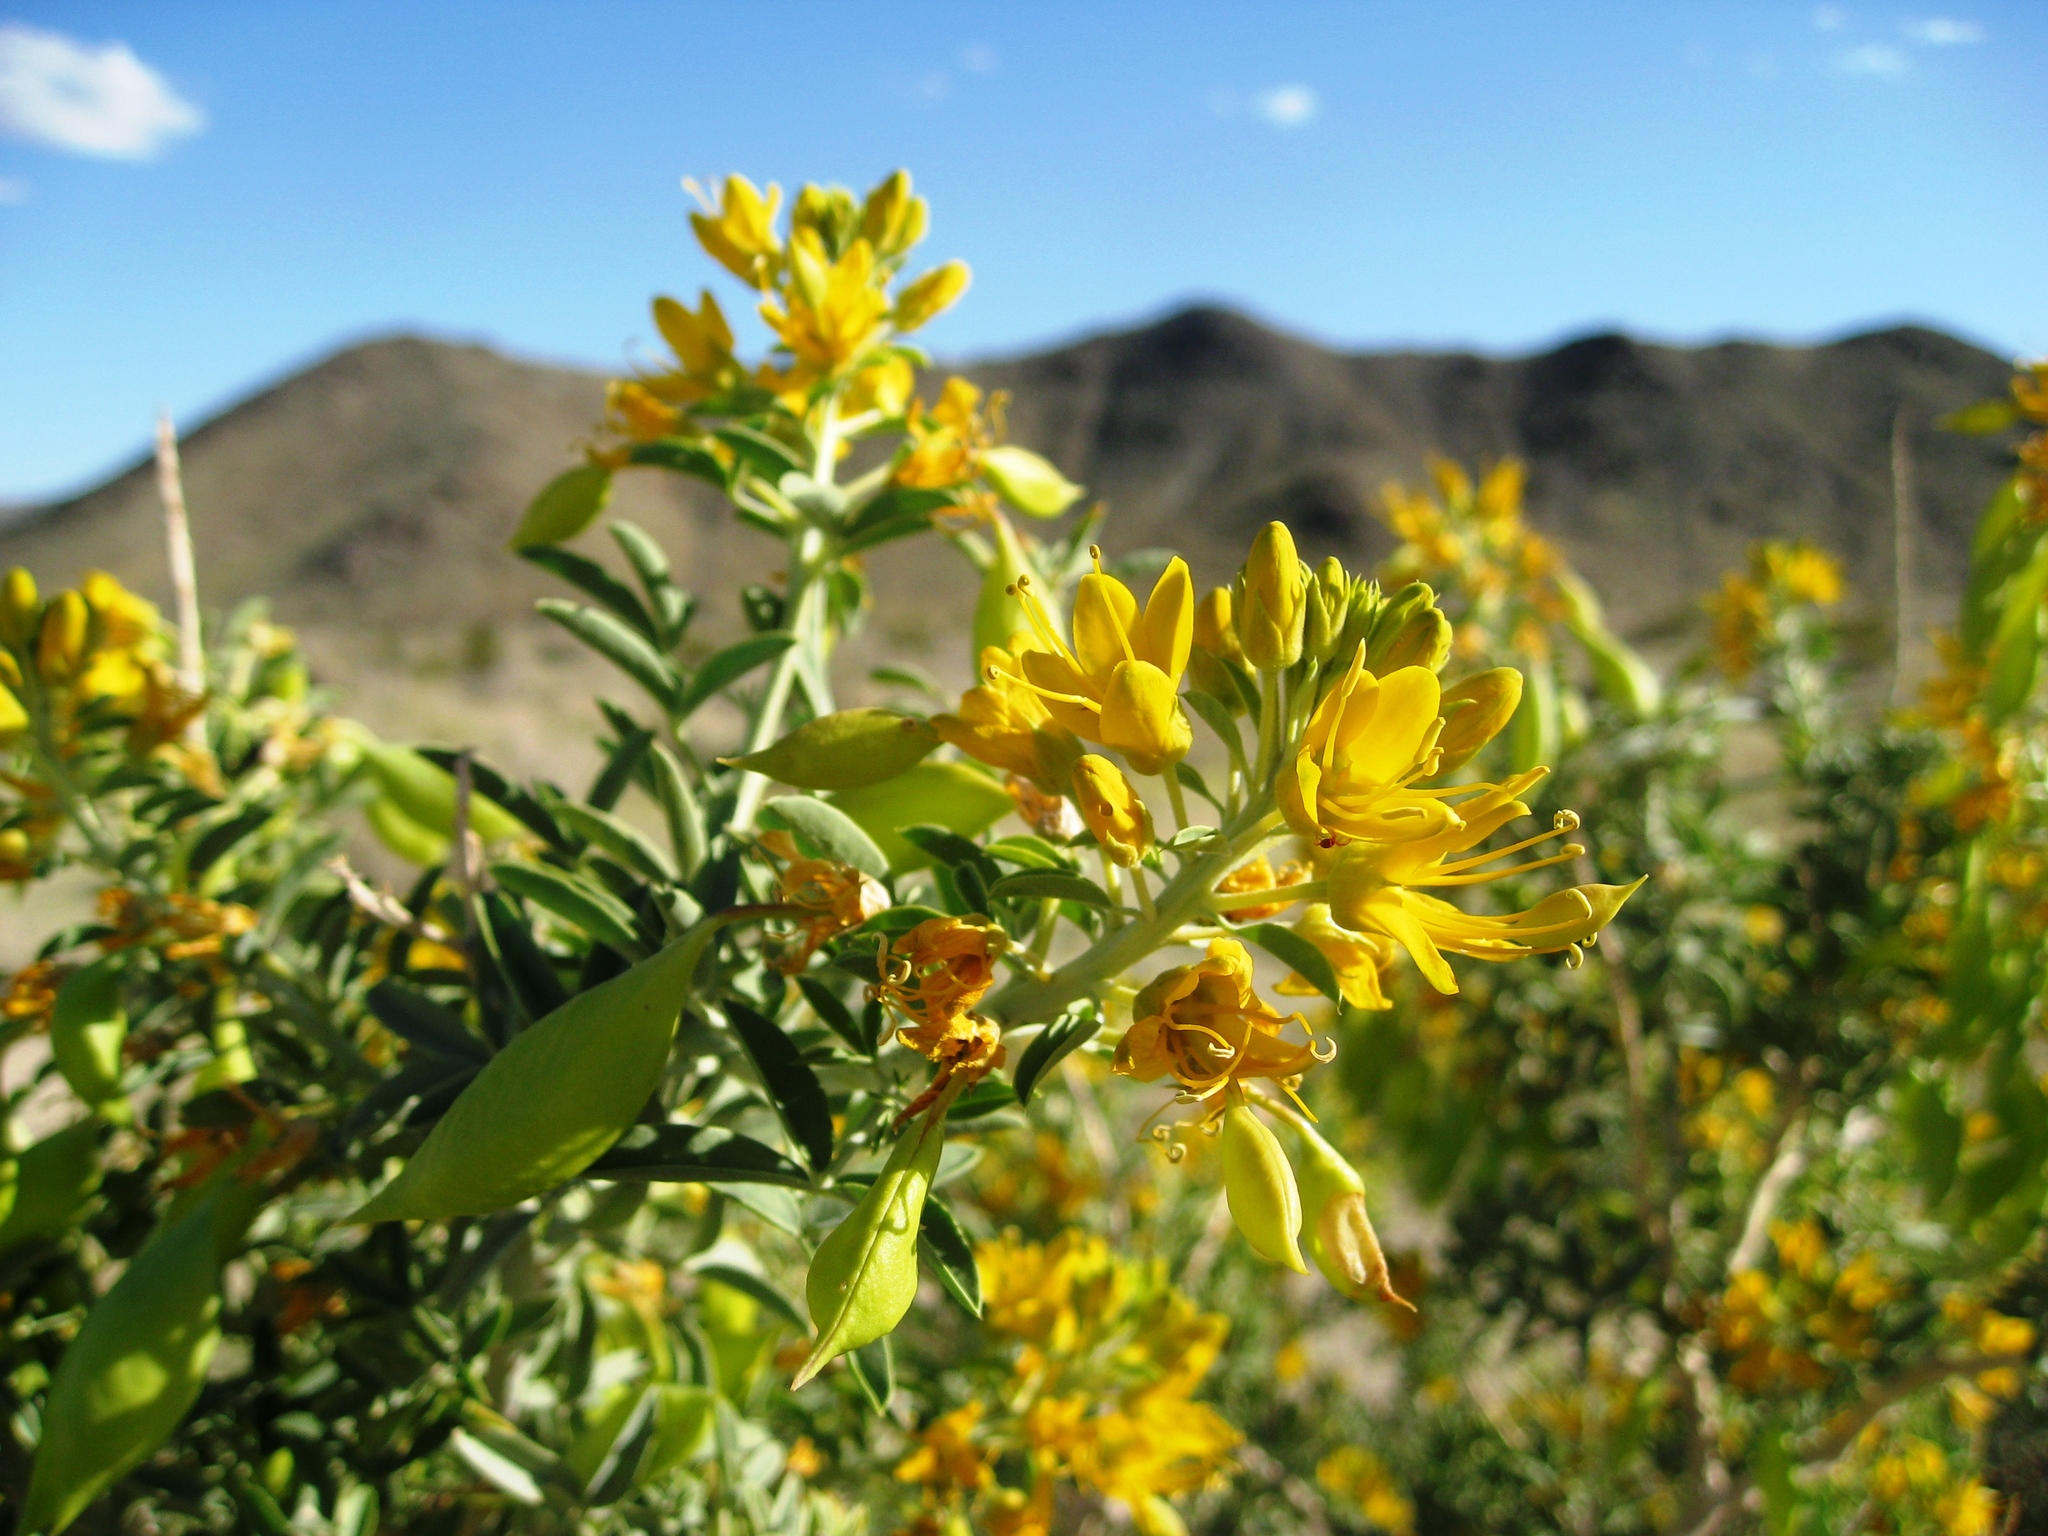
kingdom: Plantae
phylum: Tracheophyta
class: Magnoliopsida
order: Brassicales
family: Cleomaceae
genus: Cleomella
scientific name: Cleomella arborea
